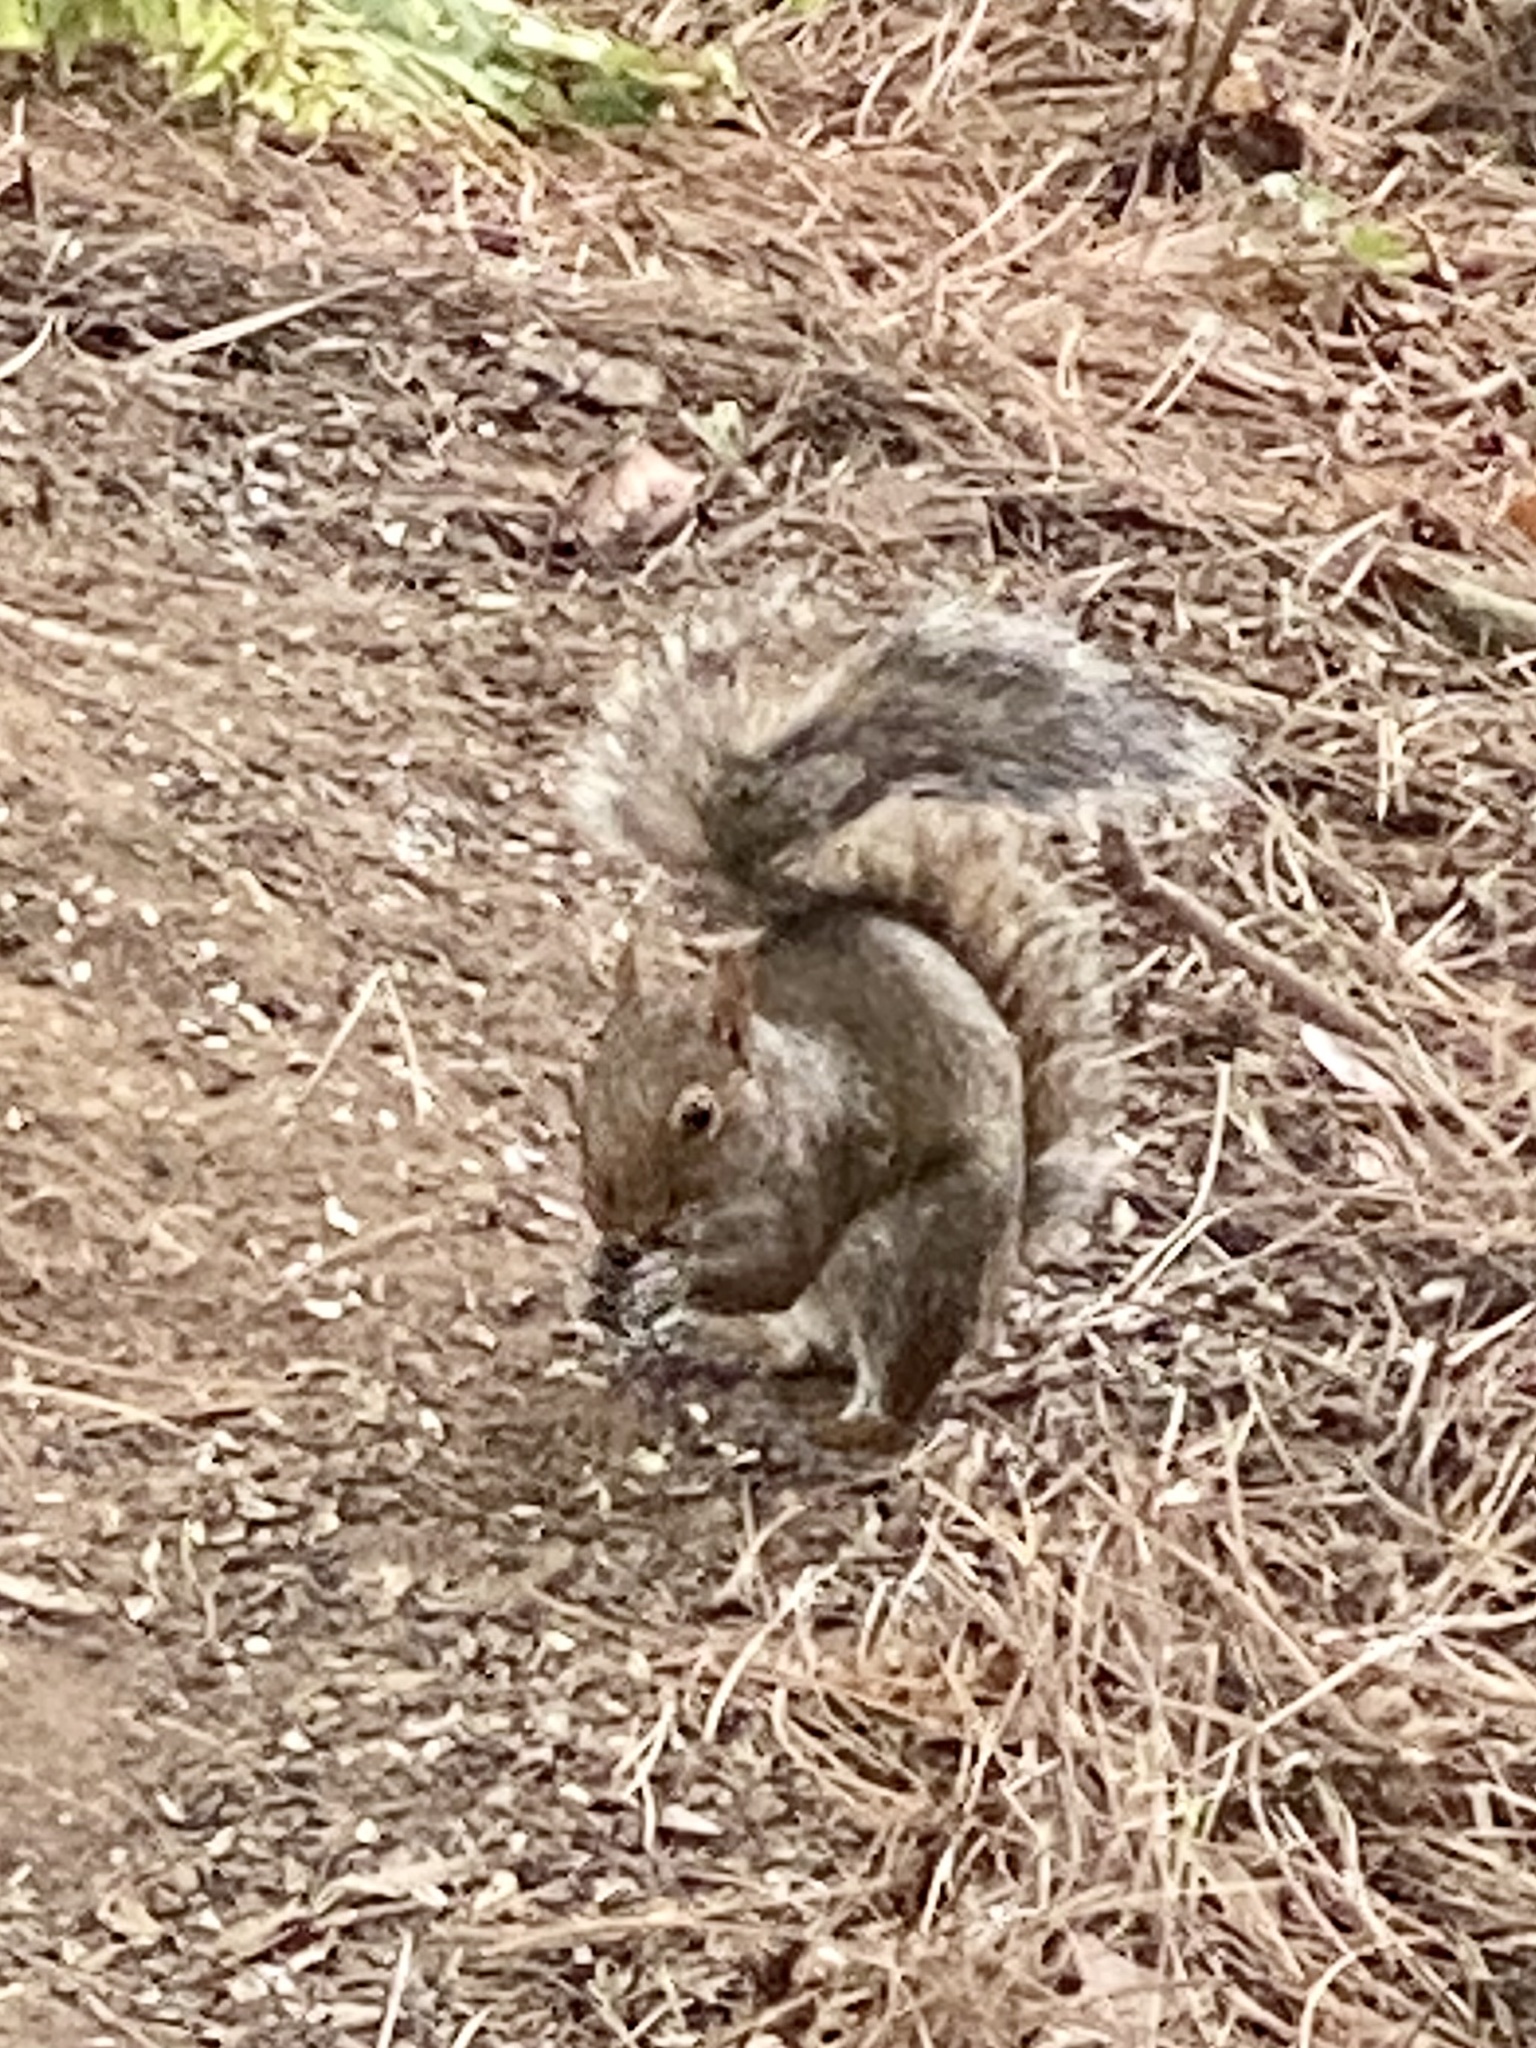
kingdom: Animalia
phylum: Chordata
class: Mammalia
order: Rodentia
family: Sciuridae
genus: Sciurus
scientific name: Sciurus carolinensis
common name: Eastern gray squirrel
